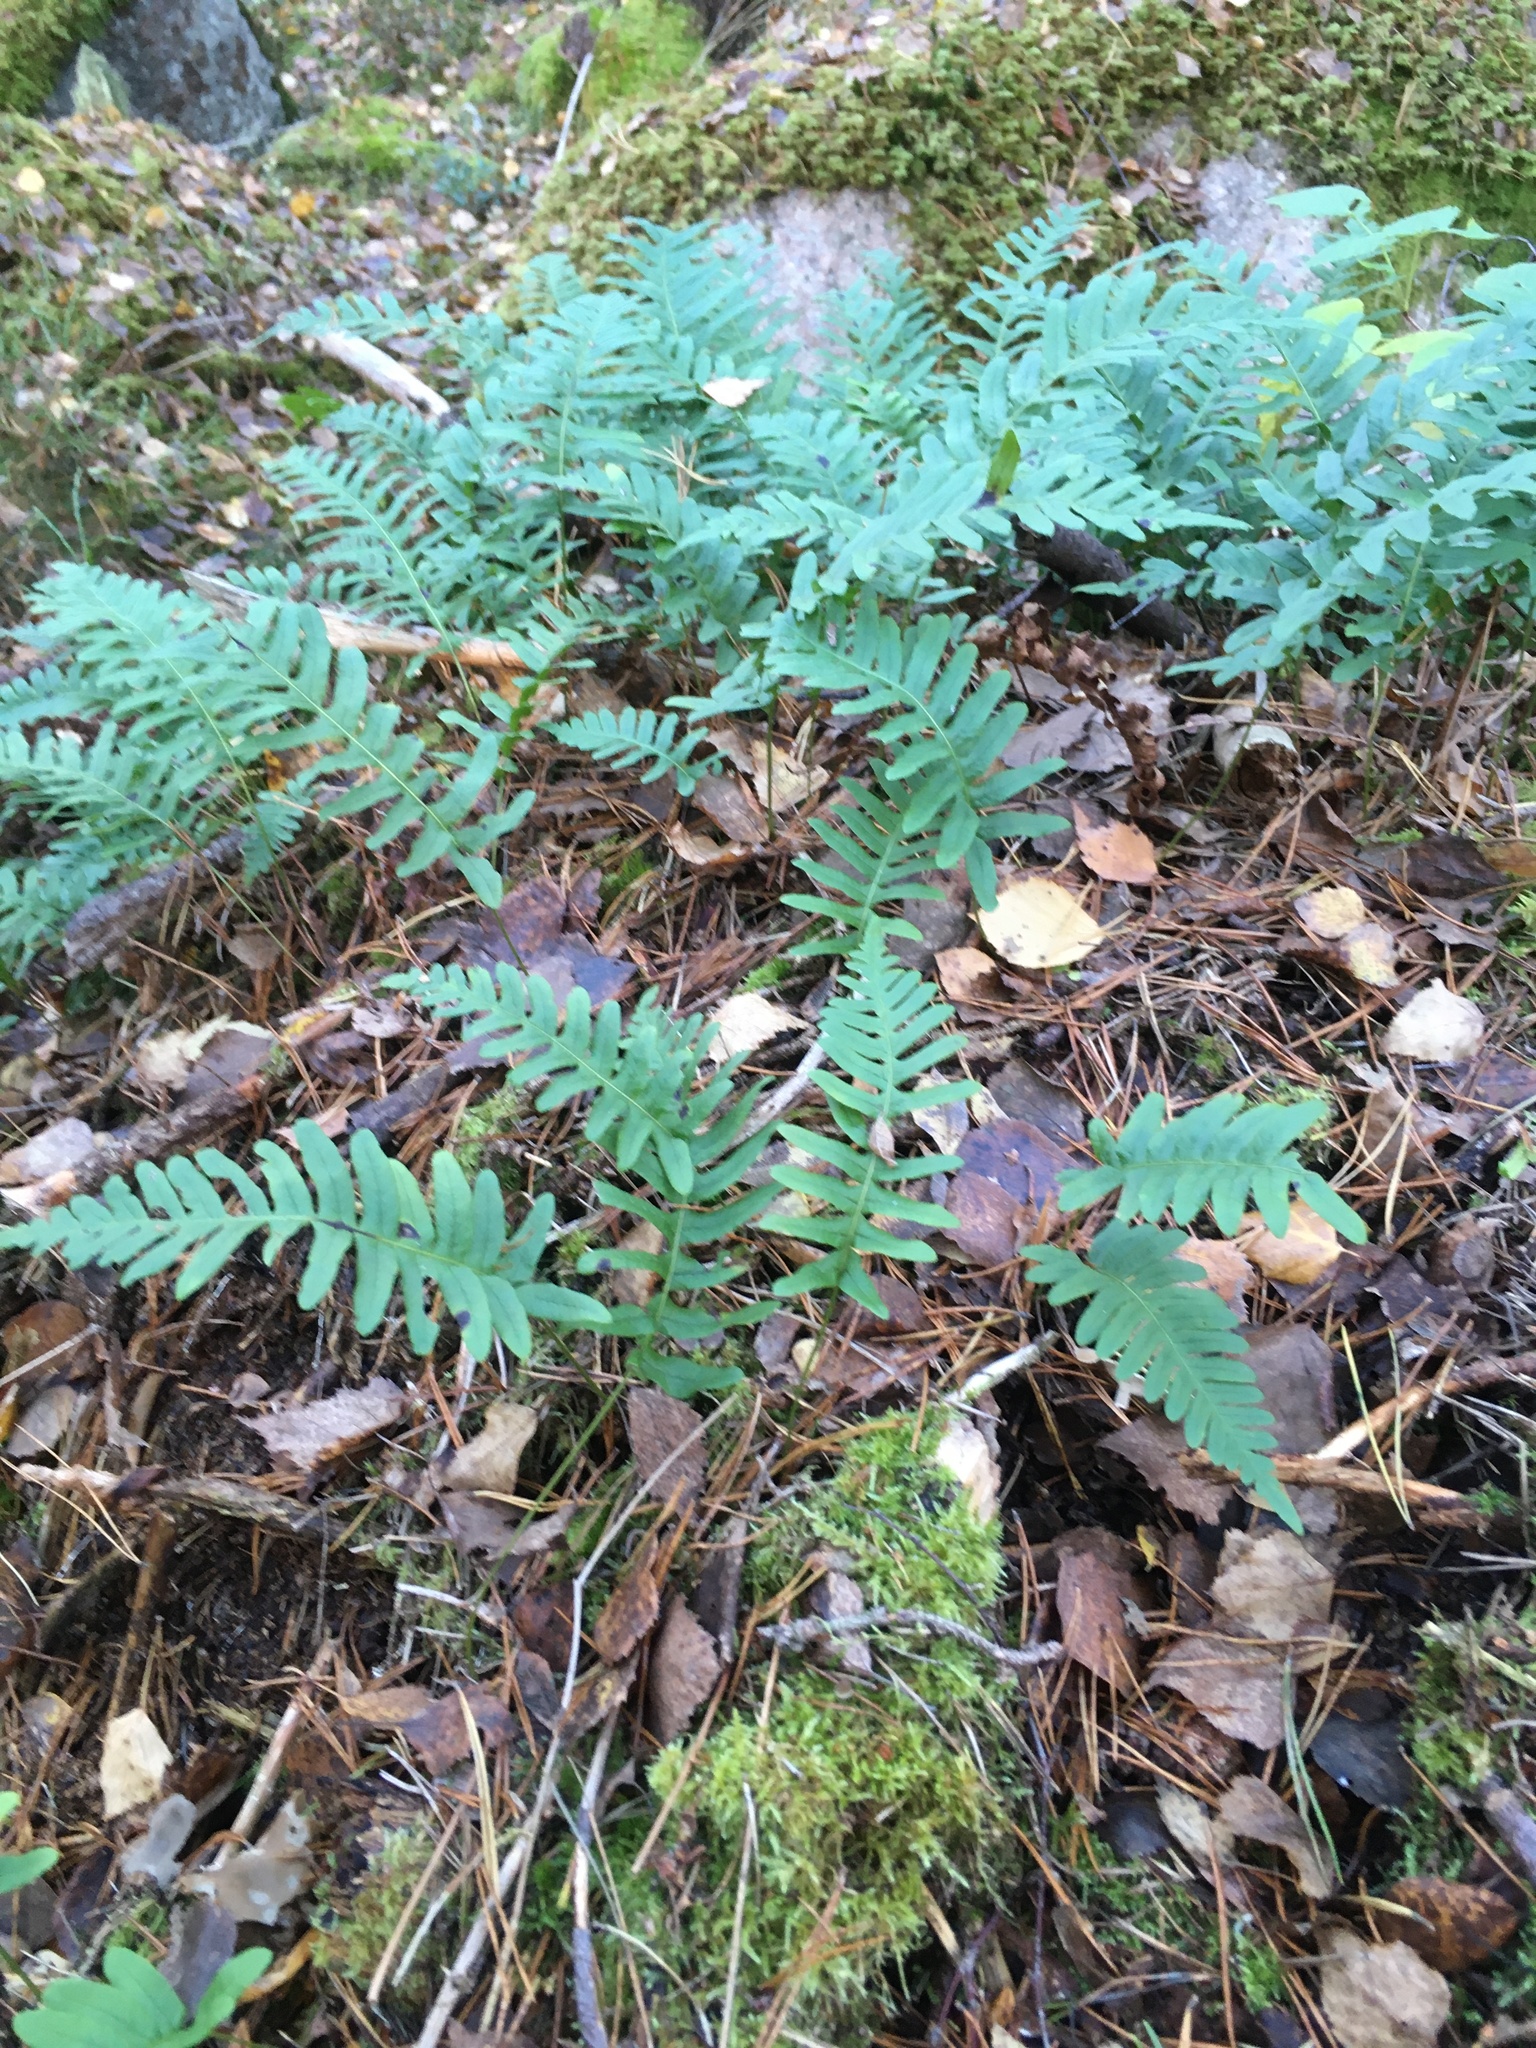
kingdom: Plantae
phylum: Tracheophyta
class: Polypodiopsida
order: Polypodiales
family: Polypodiaceae
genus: Polypodium
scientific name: Polypodium vulgare
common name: Common polypody
